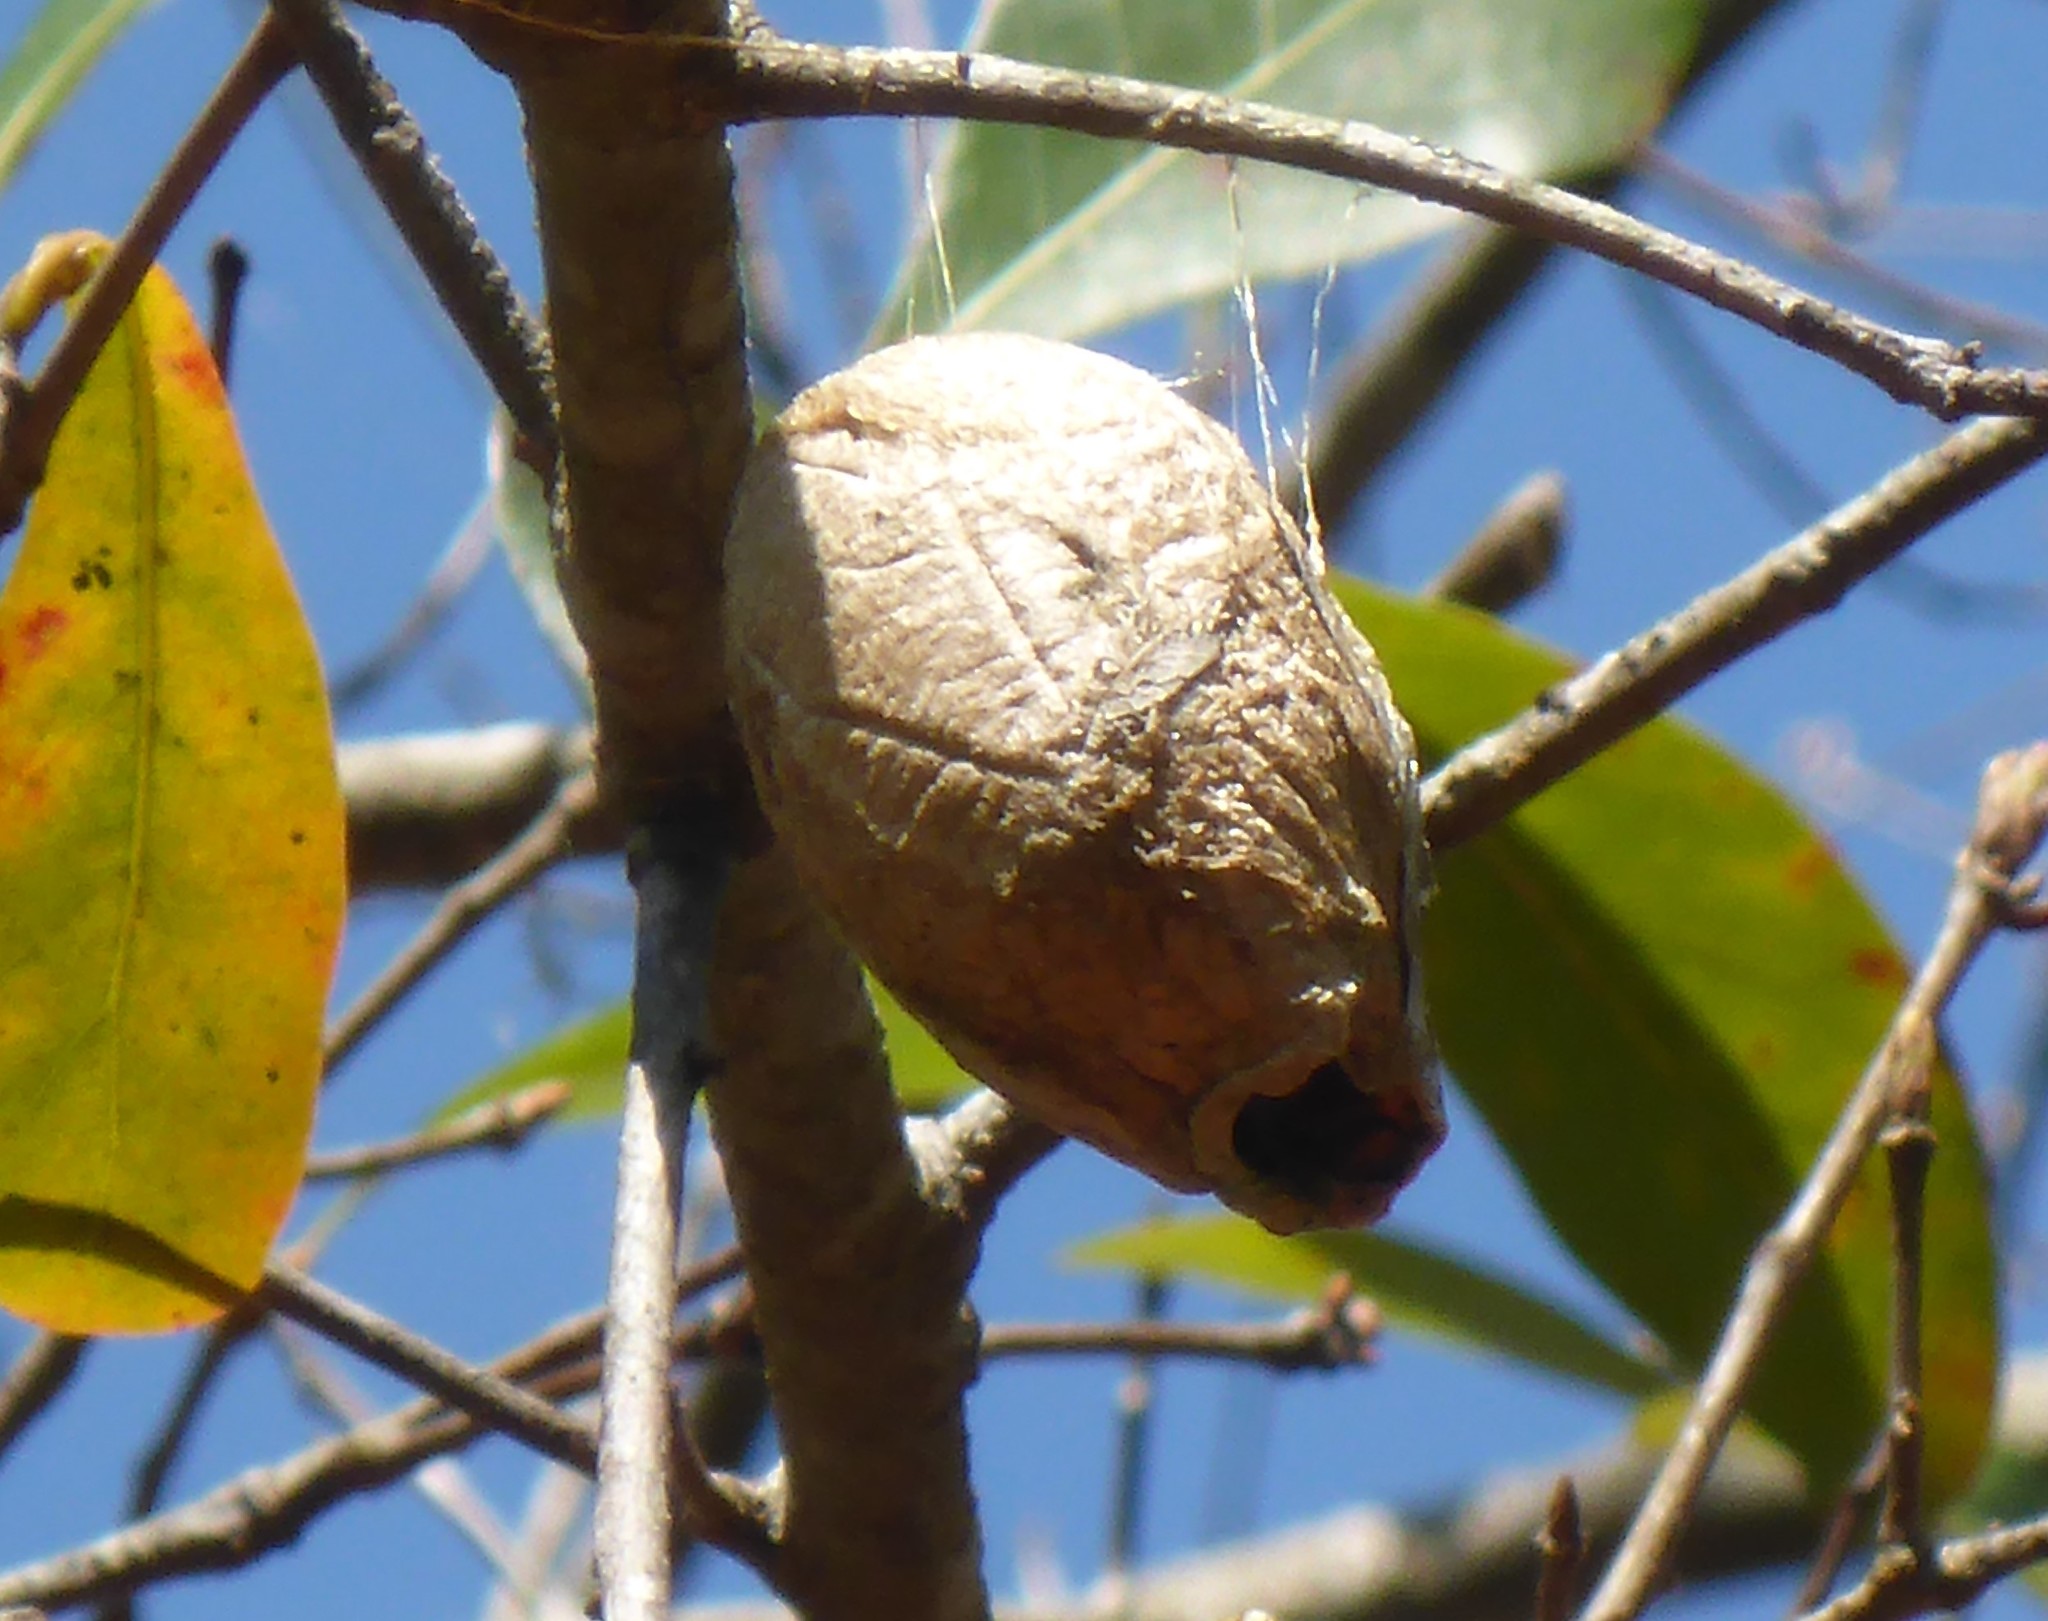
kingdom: Animalia
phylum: Arthropoda
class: Insecta
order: Lepidoptera
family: Saturniidae
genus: Antheraea
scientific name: Antheraea polyphemus
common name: Polyphemus moth
